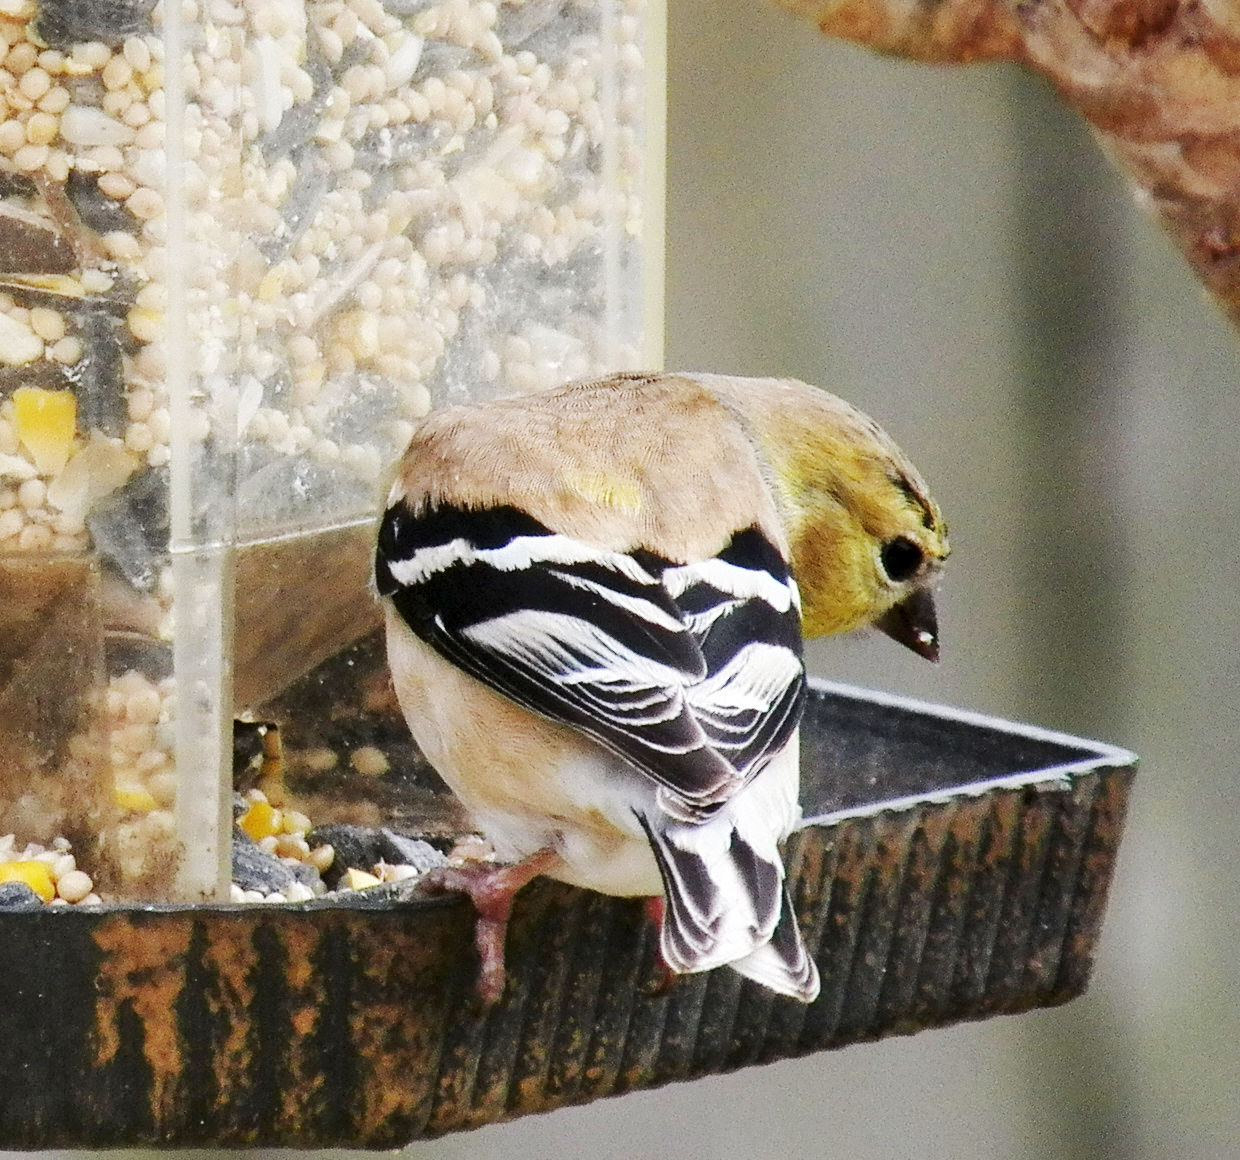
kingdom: Animalia
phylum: Chordata
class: Aves
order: Passeriformes
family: Fringillidae
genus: Spinus
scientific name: Spinus tristis
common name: American goldfinch
